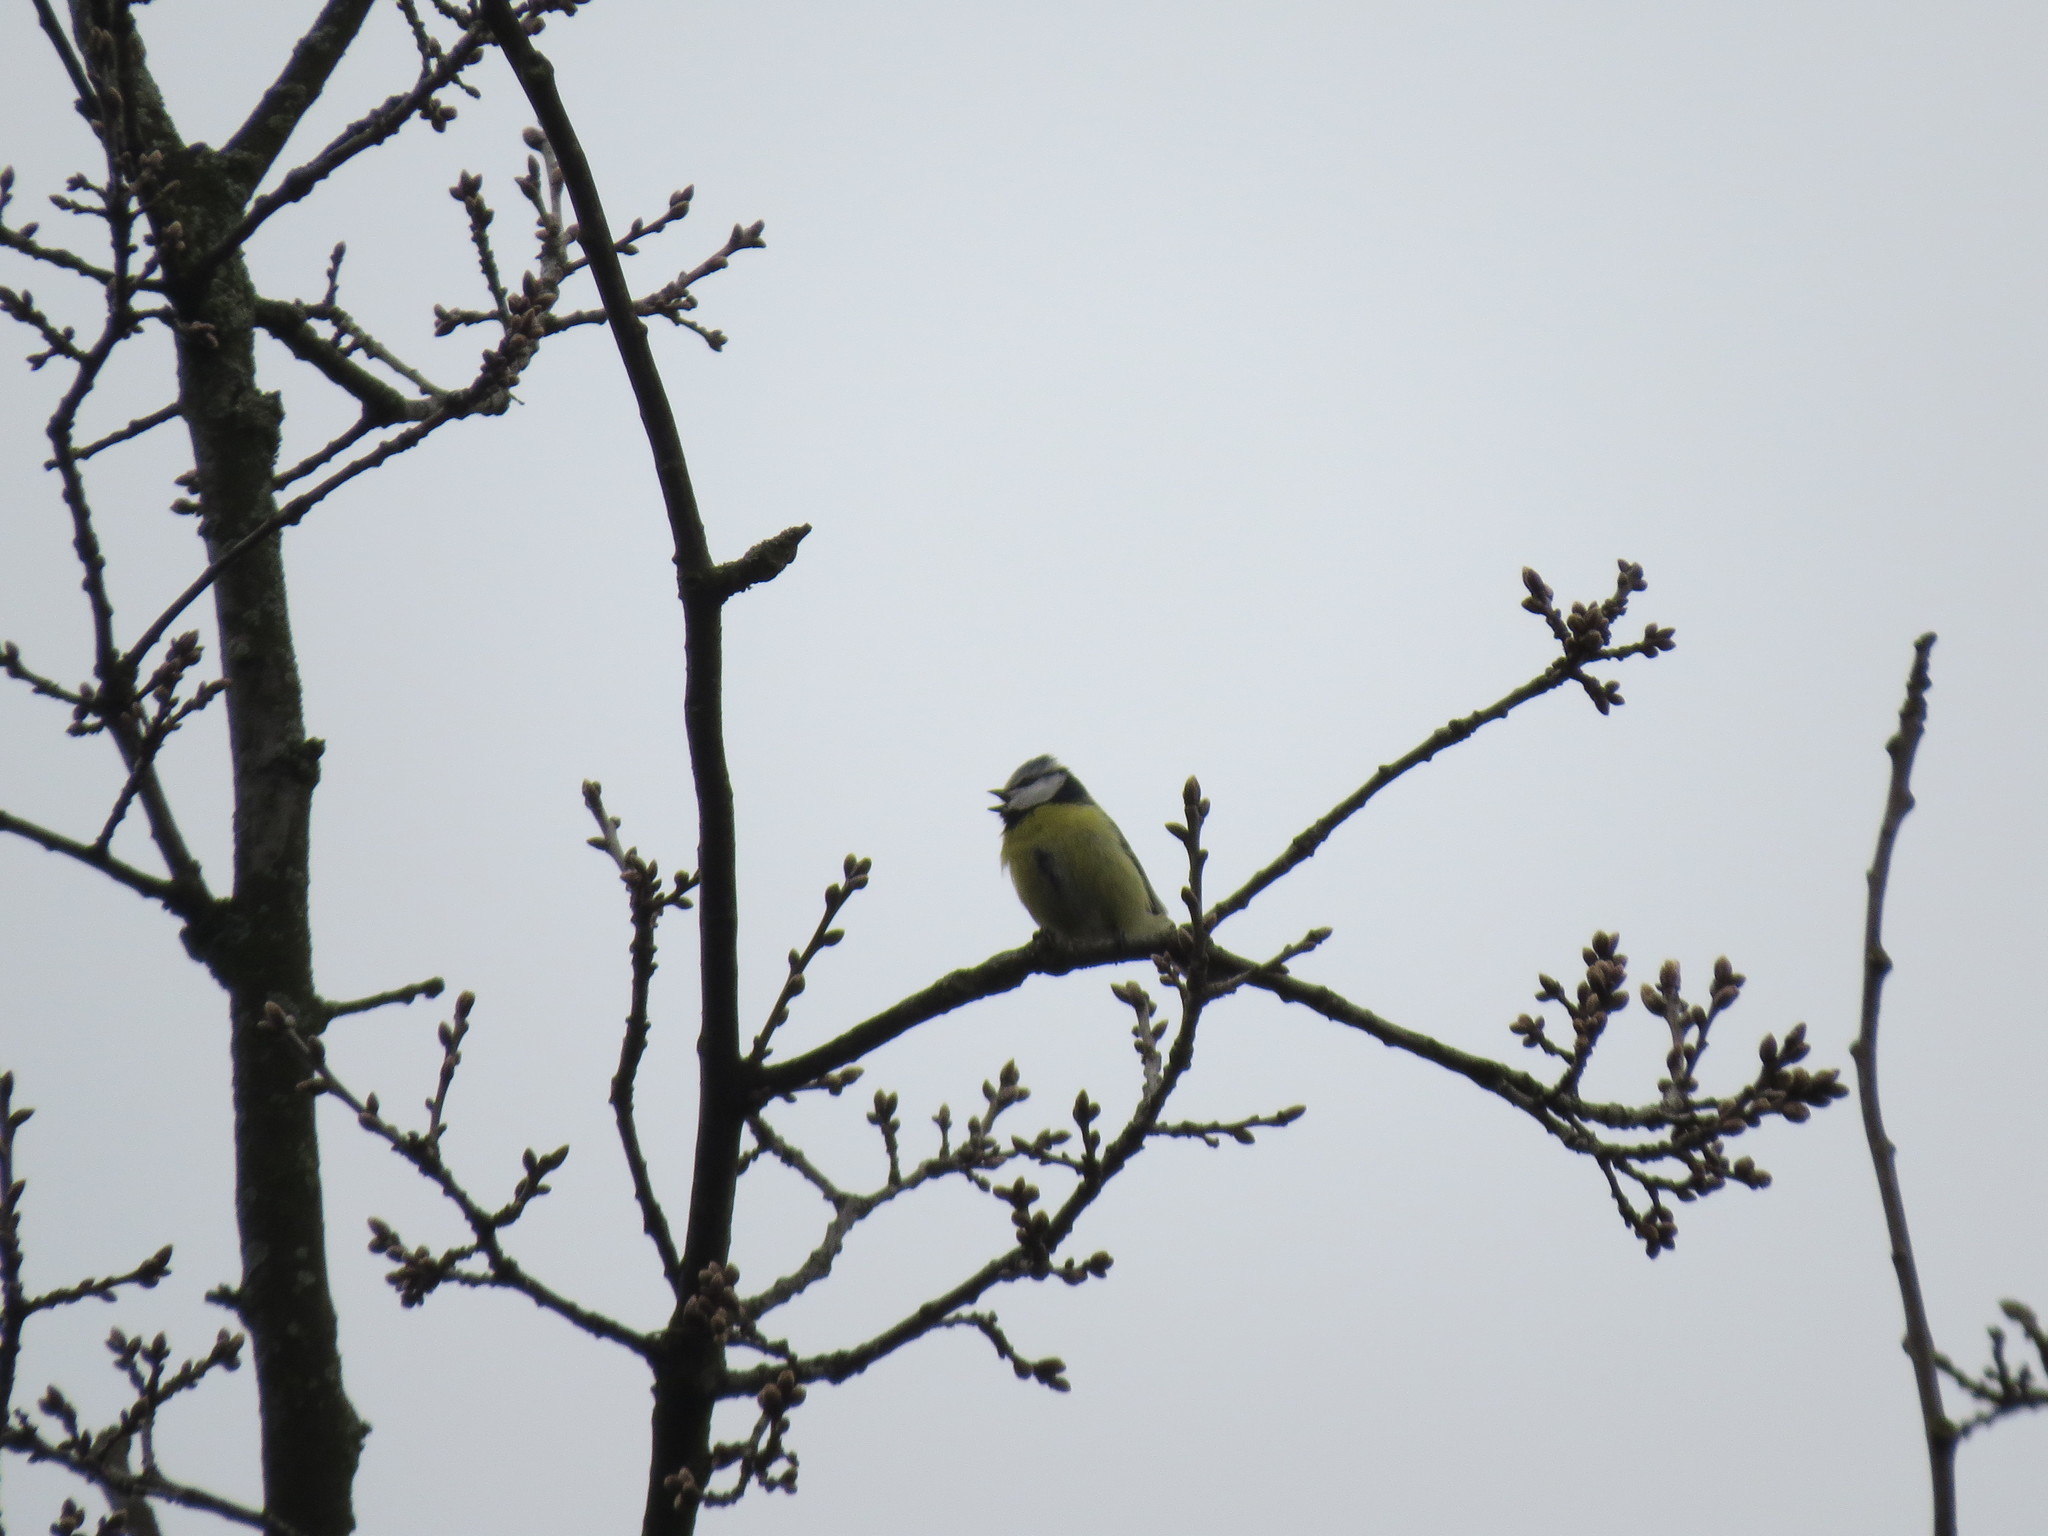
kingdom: Animalia
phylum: Chordata
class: Aves
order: Passeriformes
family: Paridae
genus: Cyanistes
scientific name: Cyanistes caeruleus
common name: Eurasian blue tit
